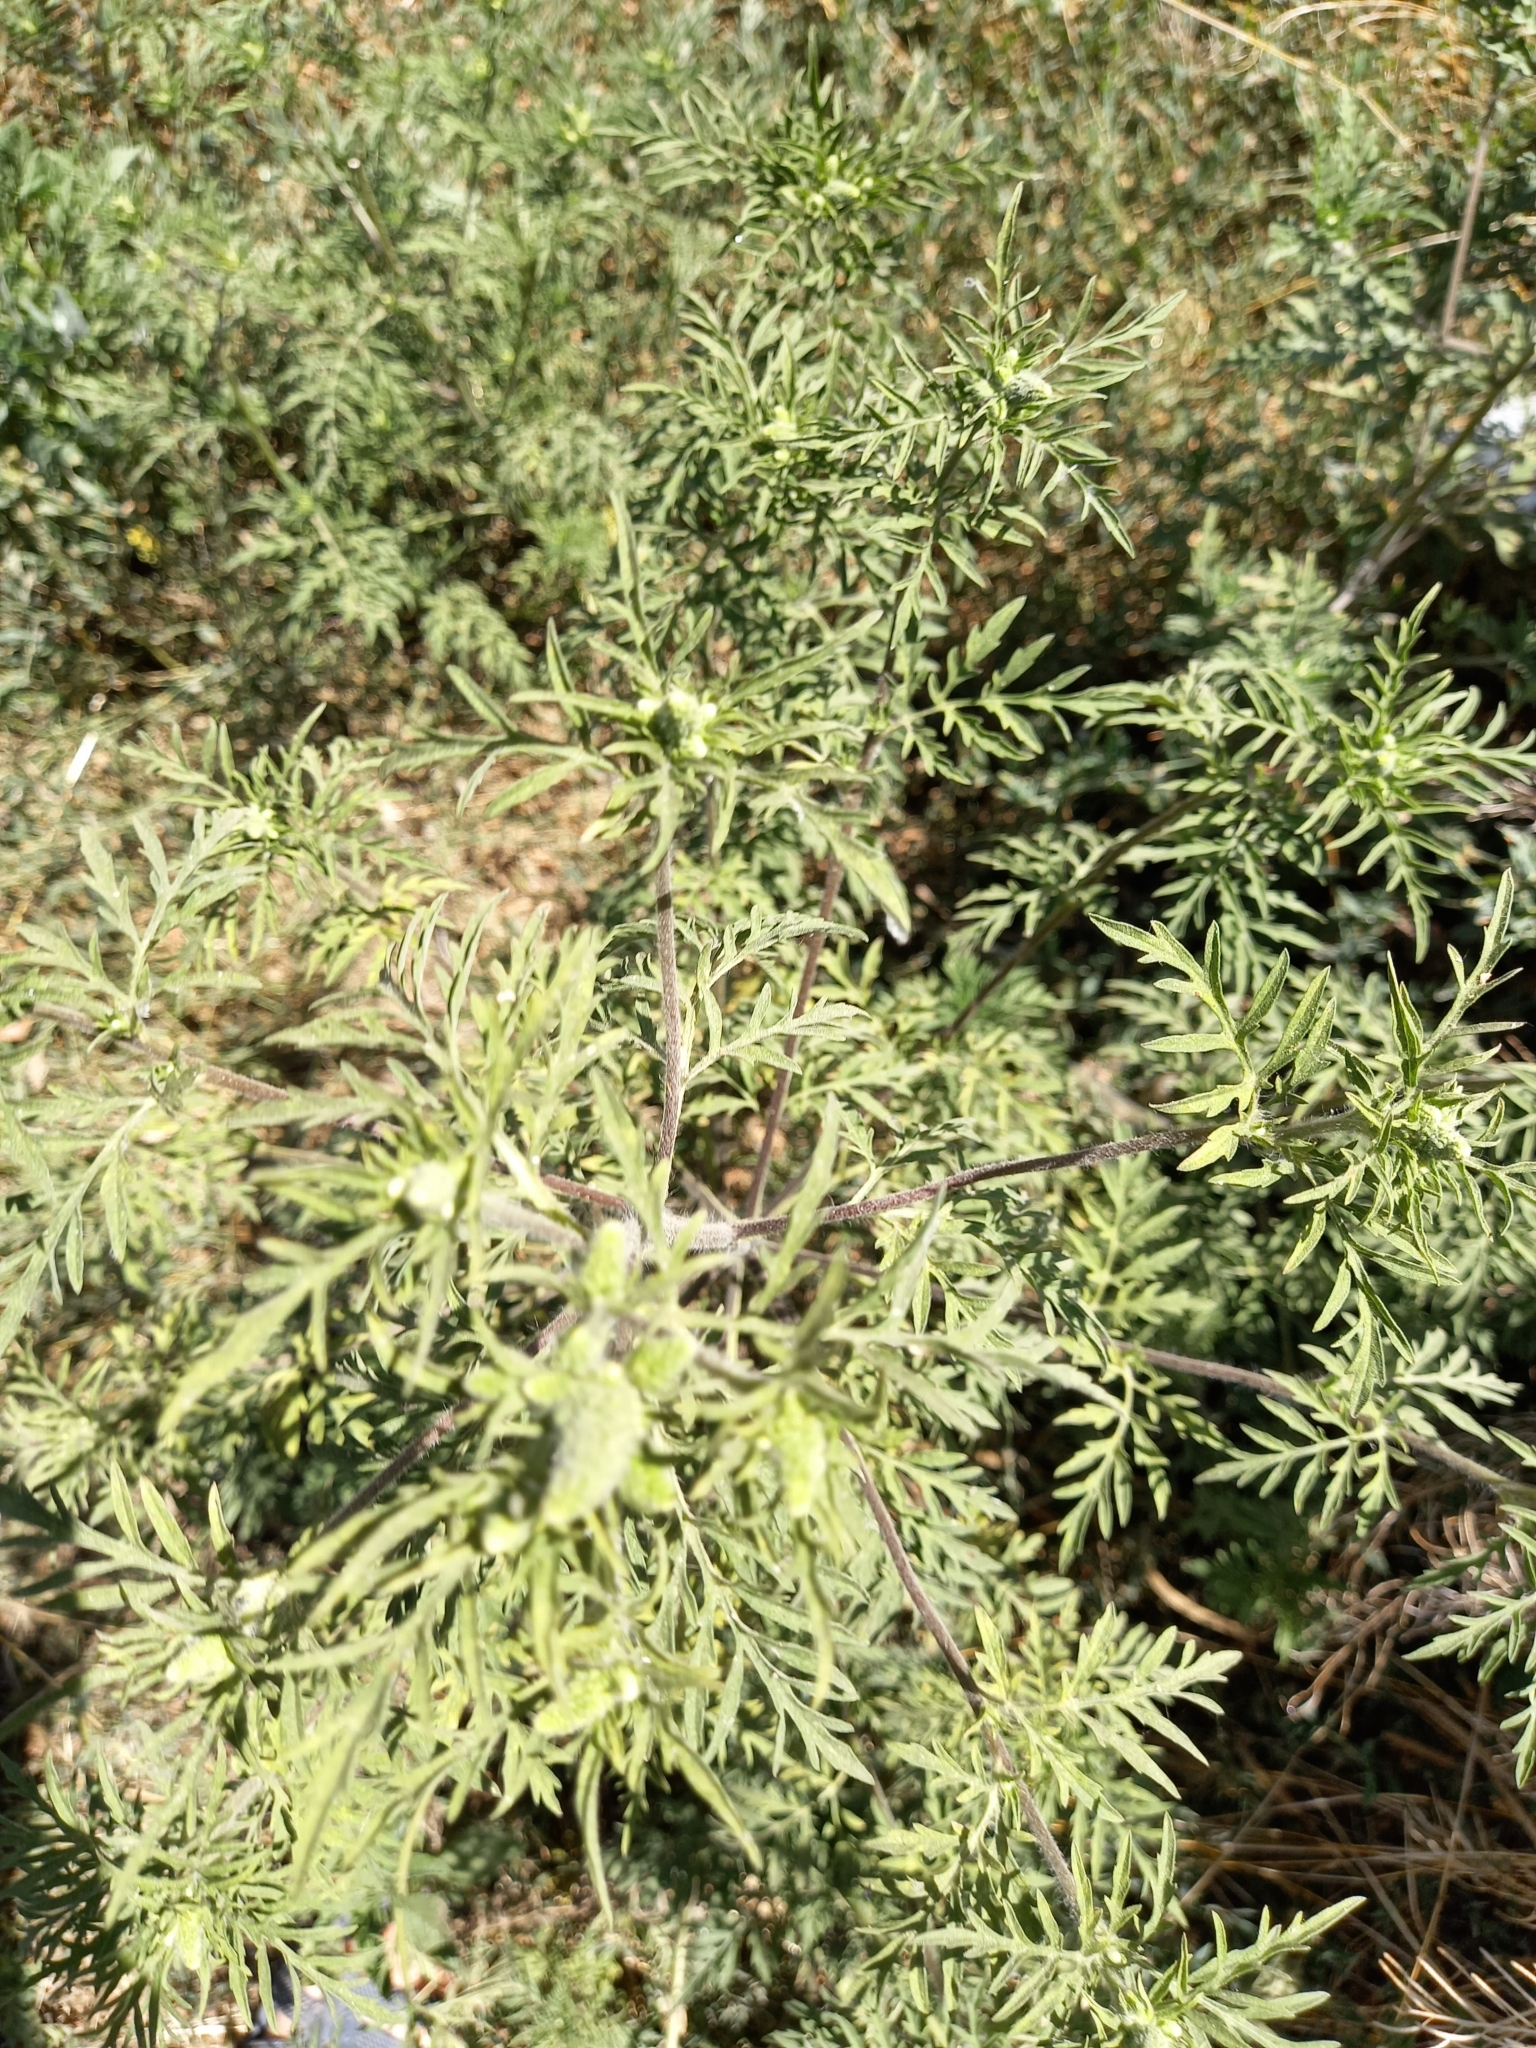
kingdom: Plantae
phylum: Tracheophyta
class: Magnoliopsida
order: Asterales
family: Asteraceae
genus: Ambrosia
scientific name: Ambrosia artemisiifolia
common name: Annual ragweed
